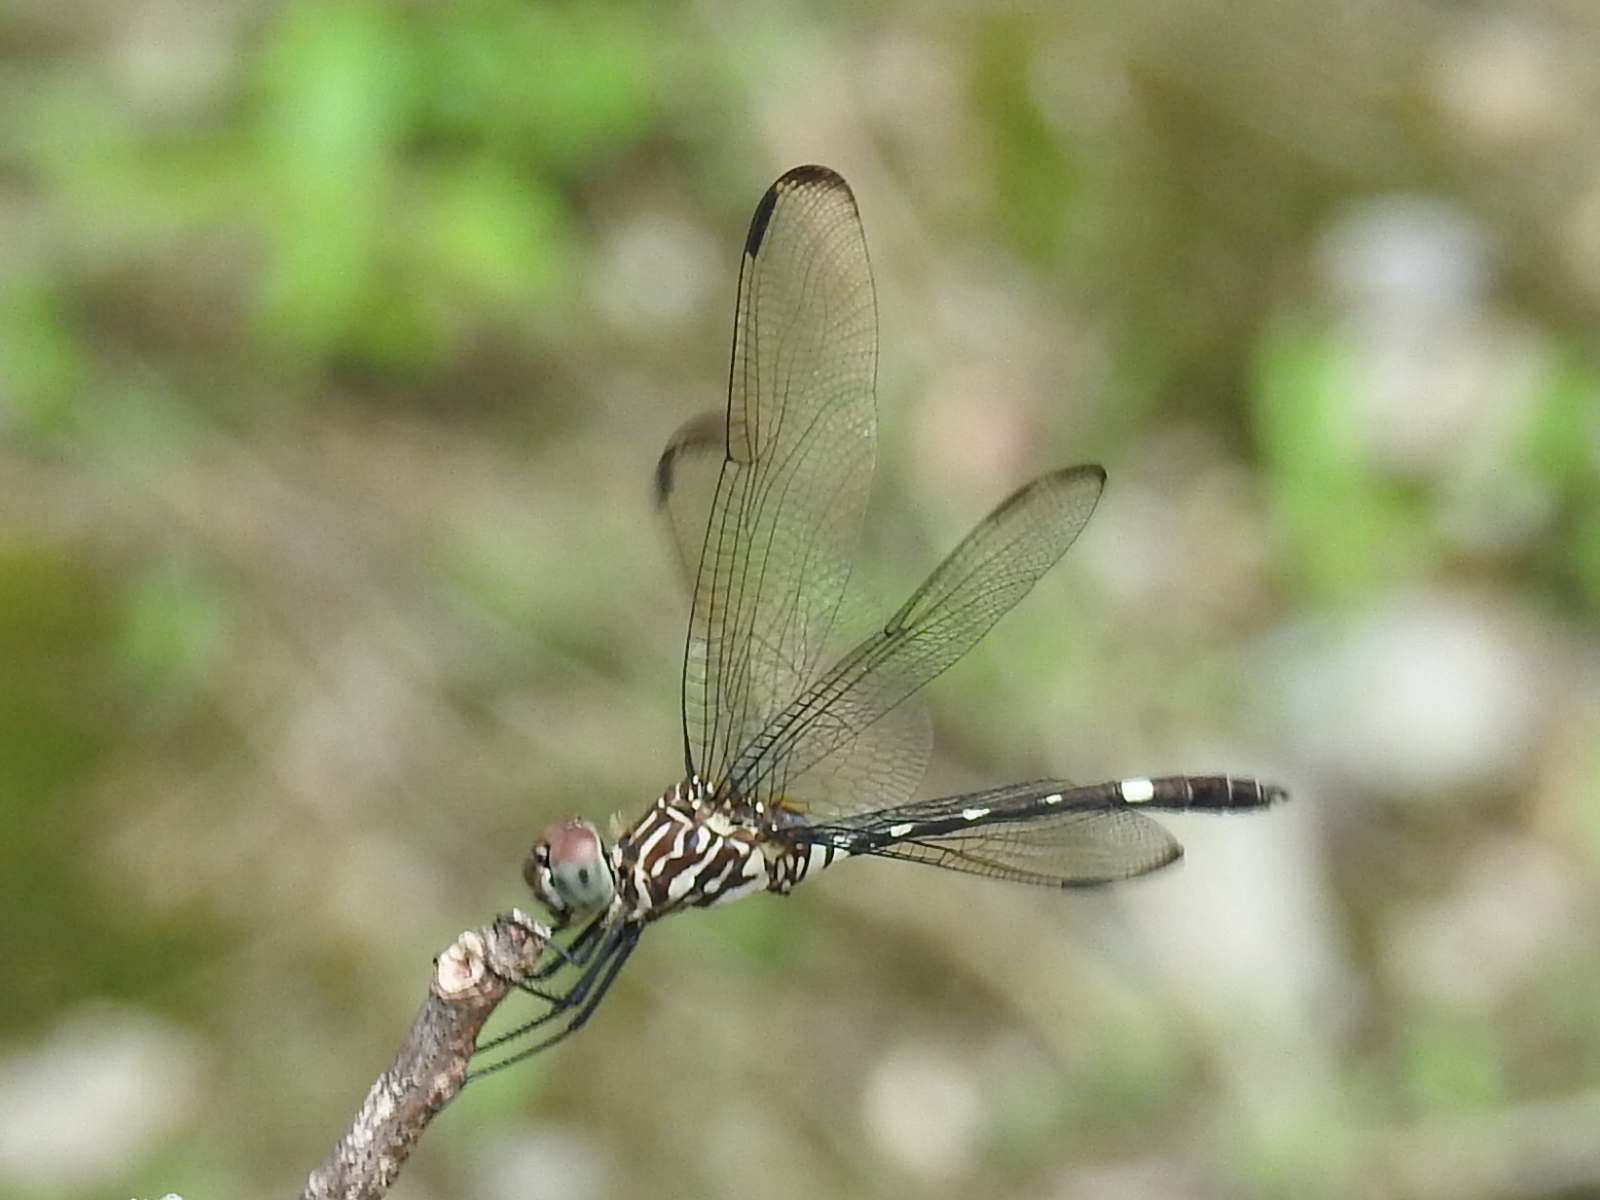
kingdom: Animalia
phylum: Arthropoda
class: Insecta
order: Odonata
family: Libellulidae
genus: Dythemis
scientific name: Dythemis velox
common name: Swift setwing
